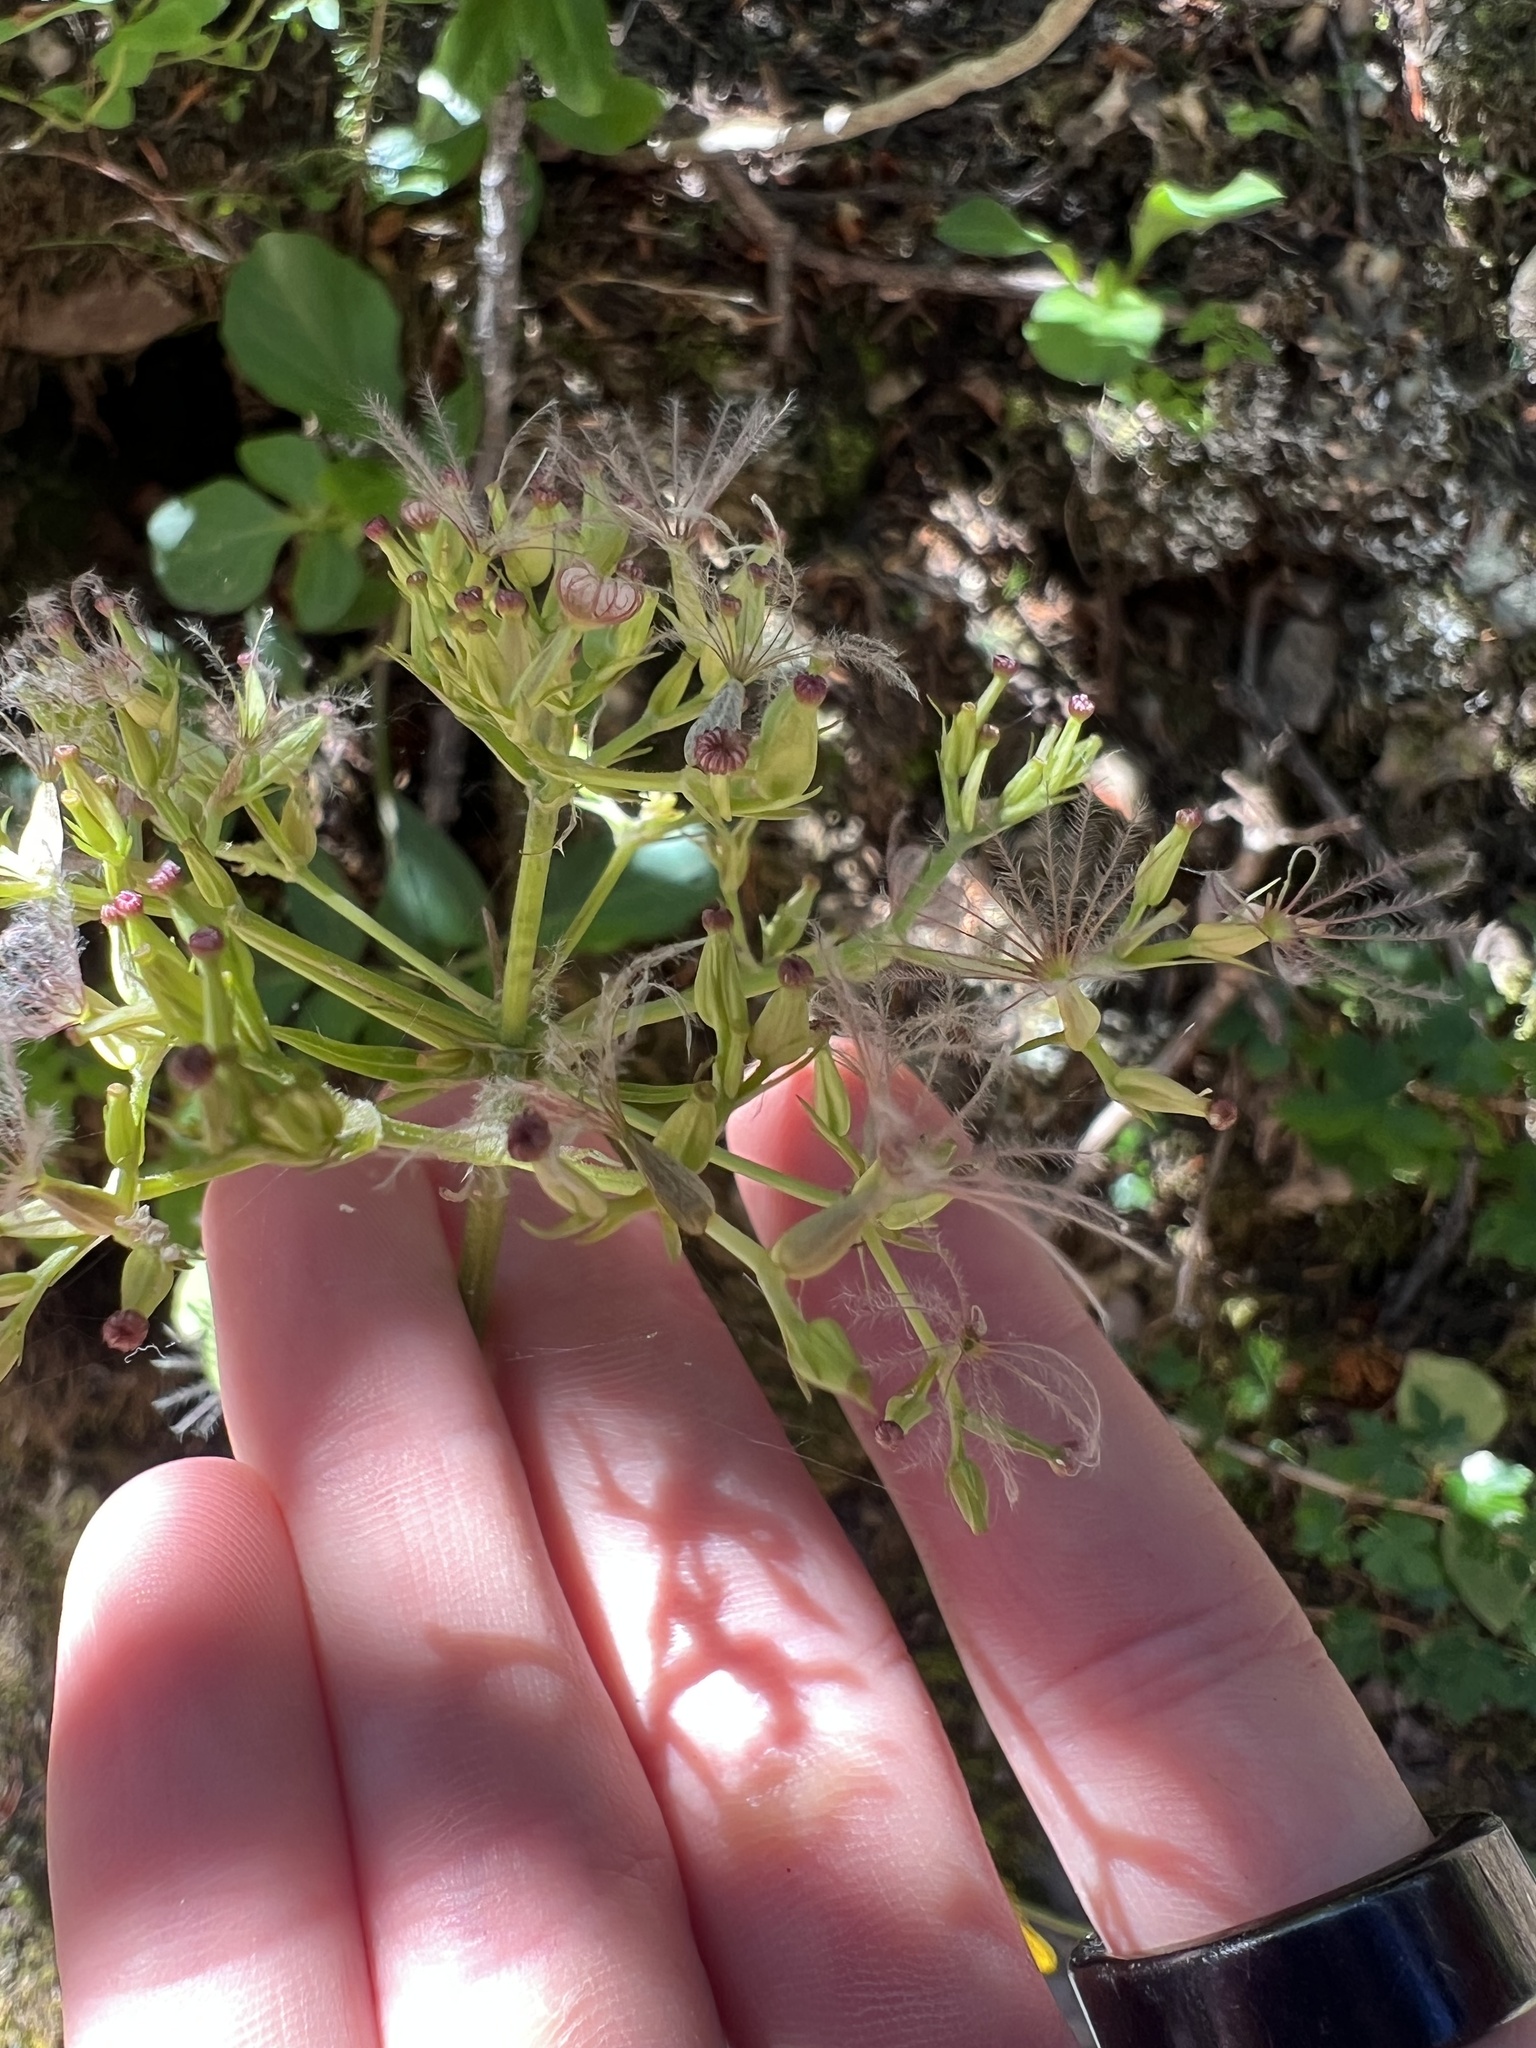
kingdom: Plantae
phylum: Tracheophyta
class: Magnoliopsida
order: Dipsacales
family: Caprifoliaceae
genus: Valeriana
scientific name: Valeriana sitchensis
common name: Pacific valerian
